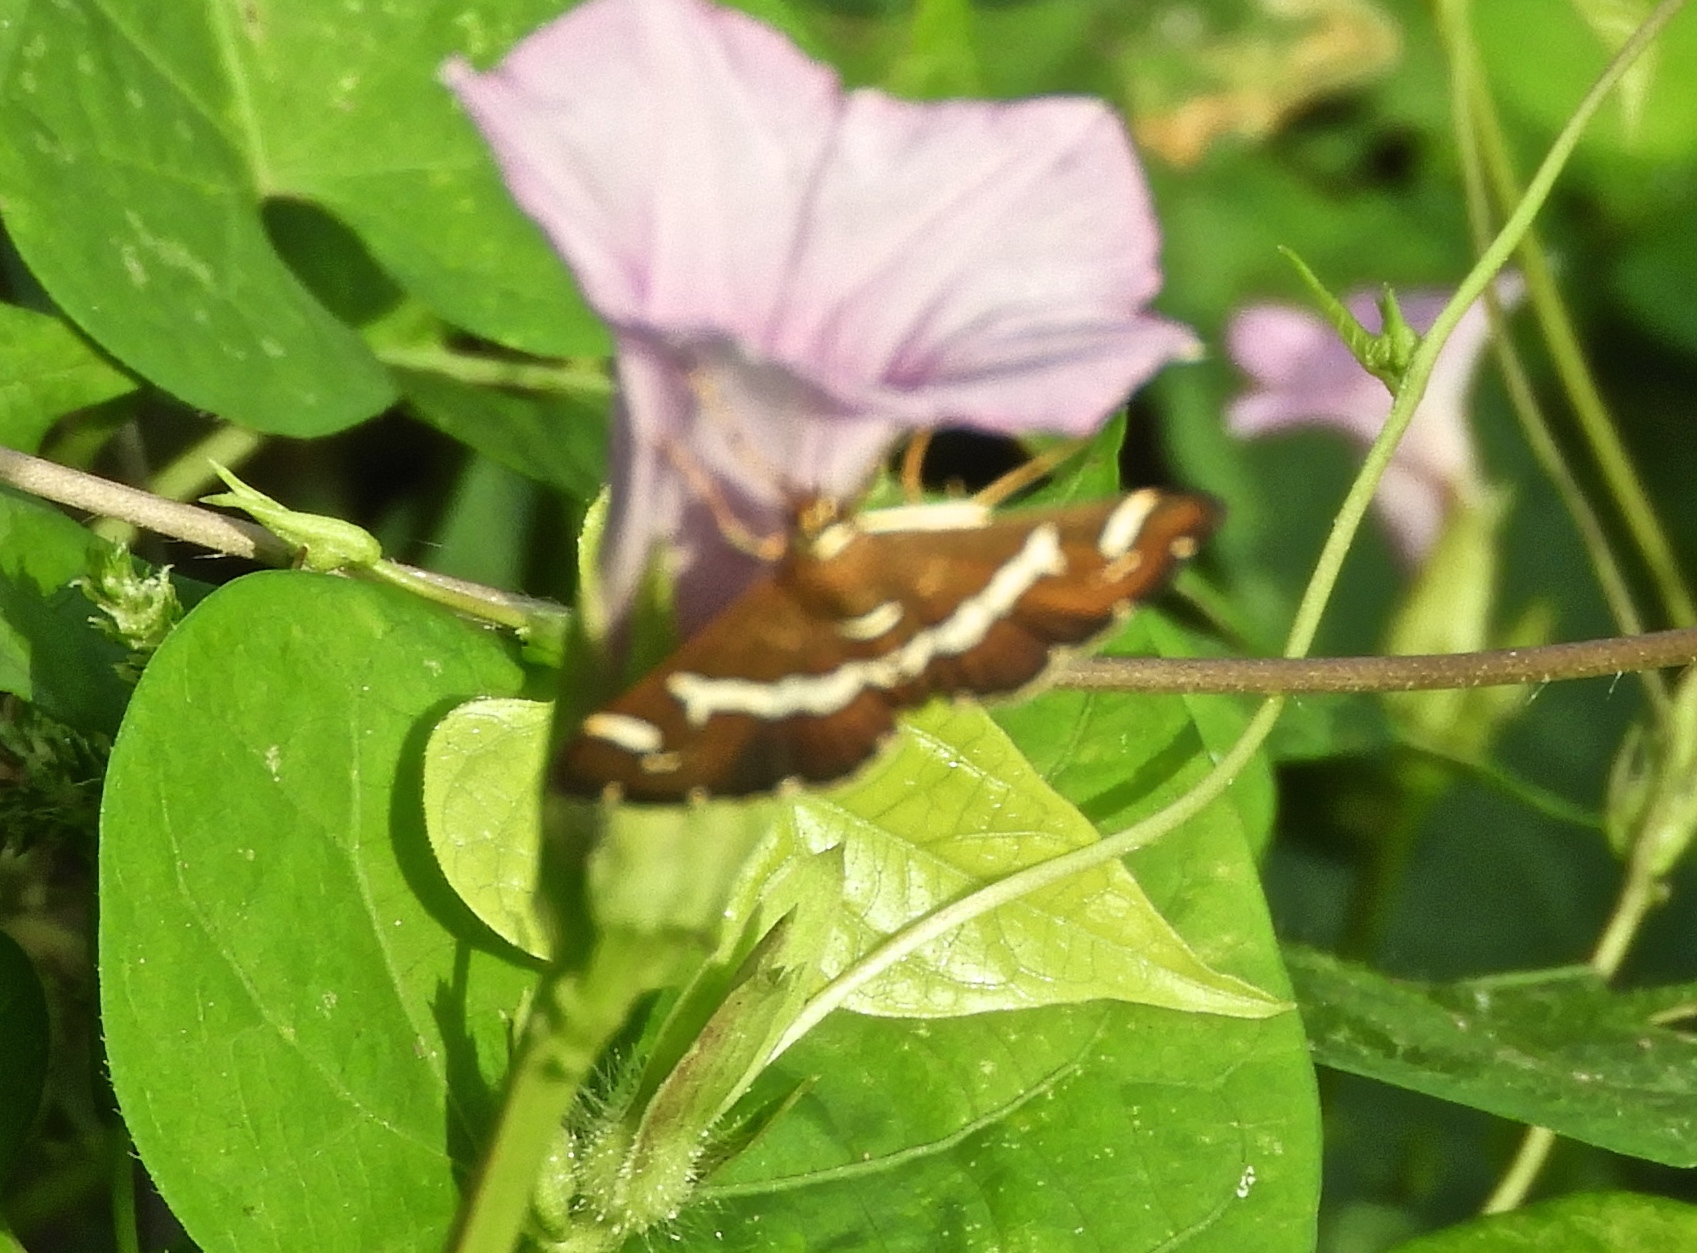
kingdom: Animalia
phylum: Arthropoda
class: Insecta
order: Lepidoptera
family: Crambidae
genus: Spoladea
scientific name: Spoladea recurvalis
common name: Beet webworm moth
